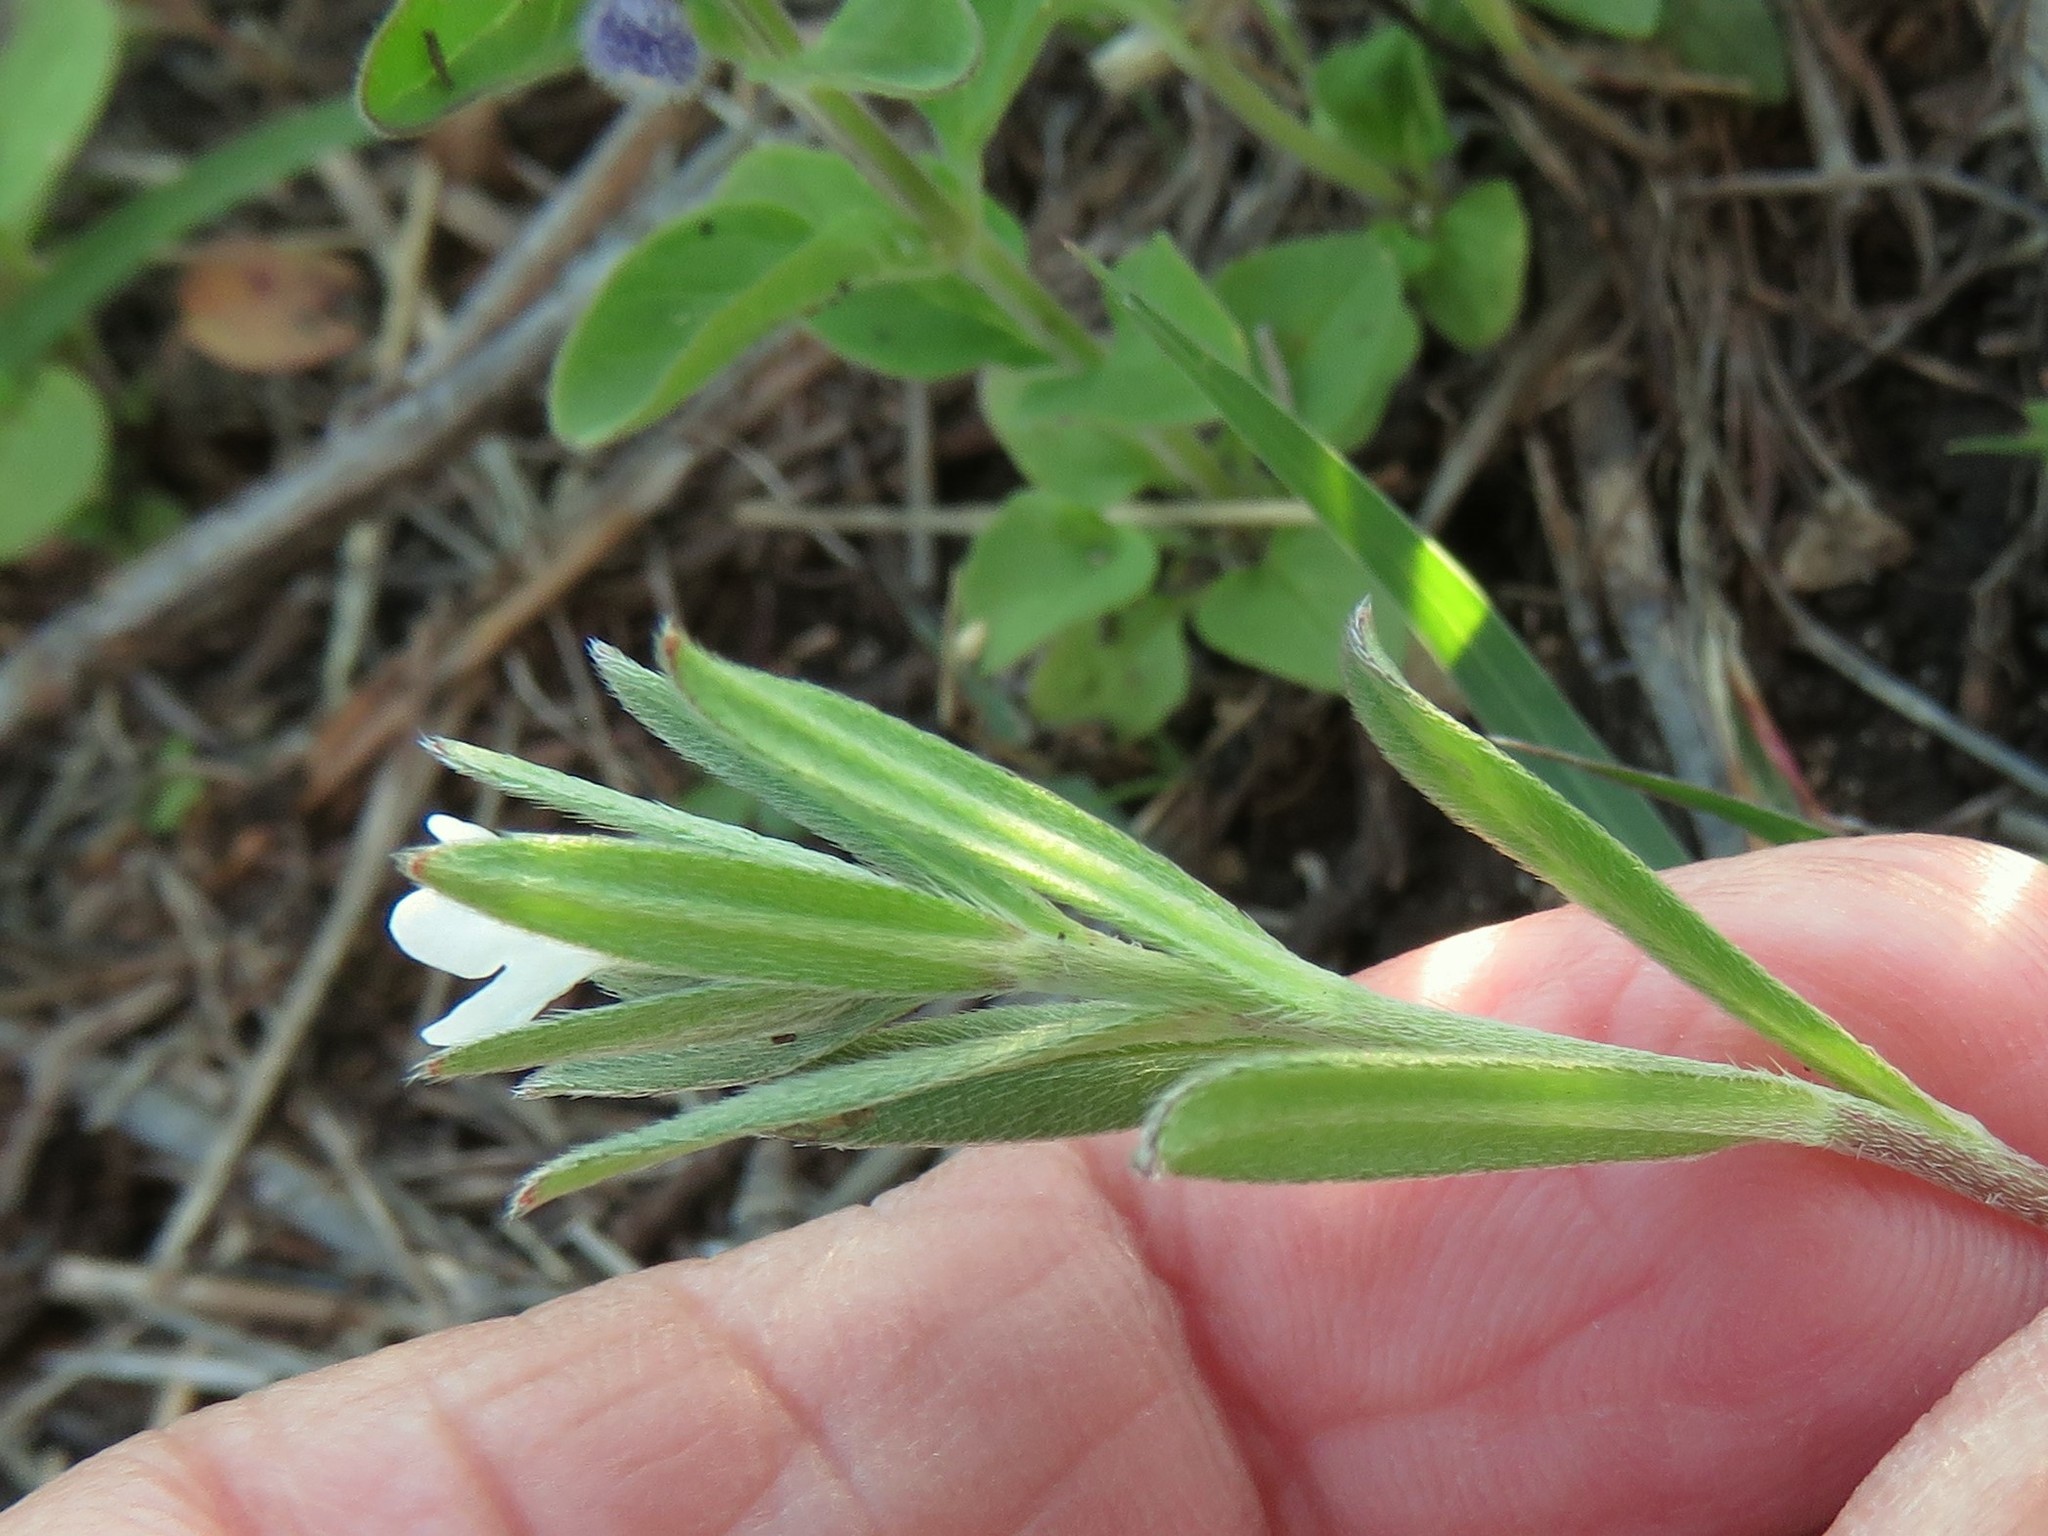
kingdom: Plantae
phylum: Tracheophyta
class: Magnoliopsida
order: Boraginales
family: Boraginaceae
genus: Buglossoides
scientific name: Buglossoides arvensis
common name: Corn gromwell
